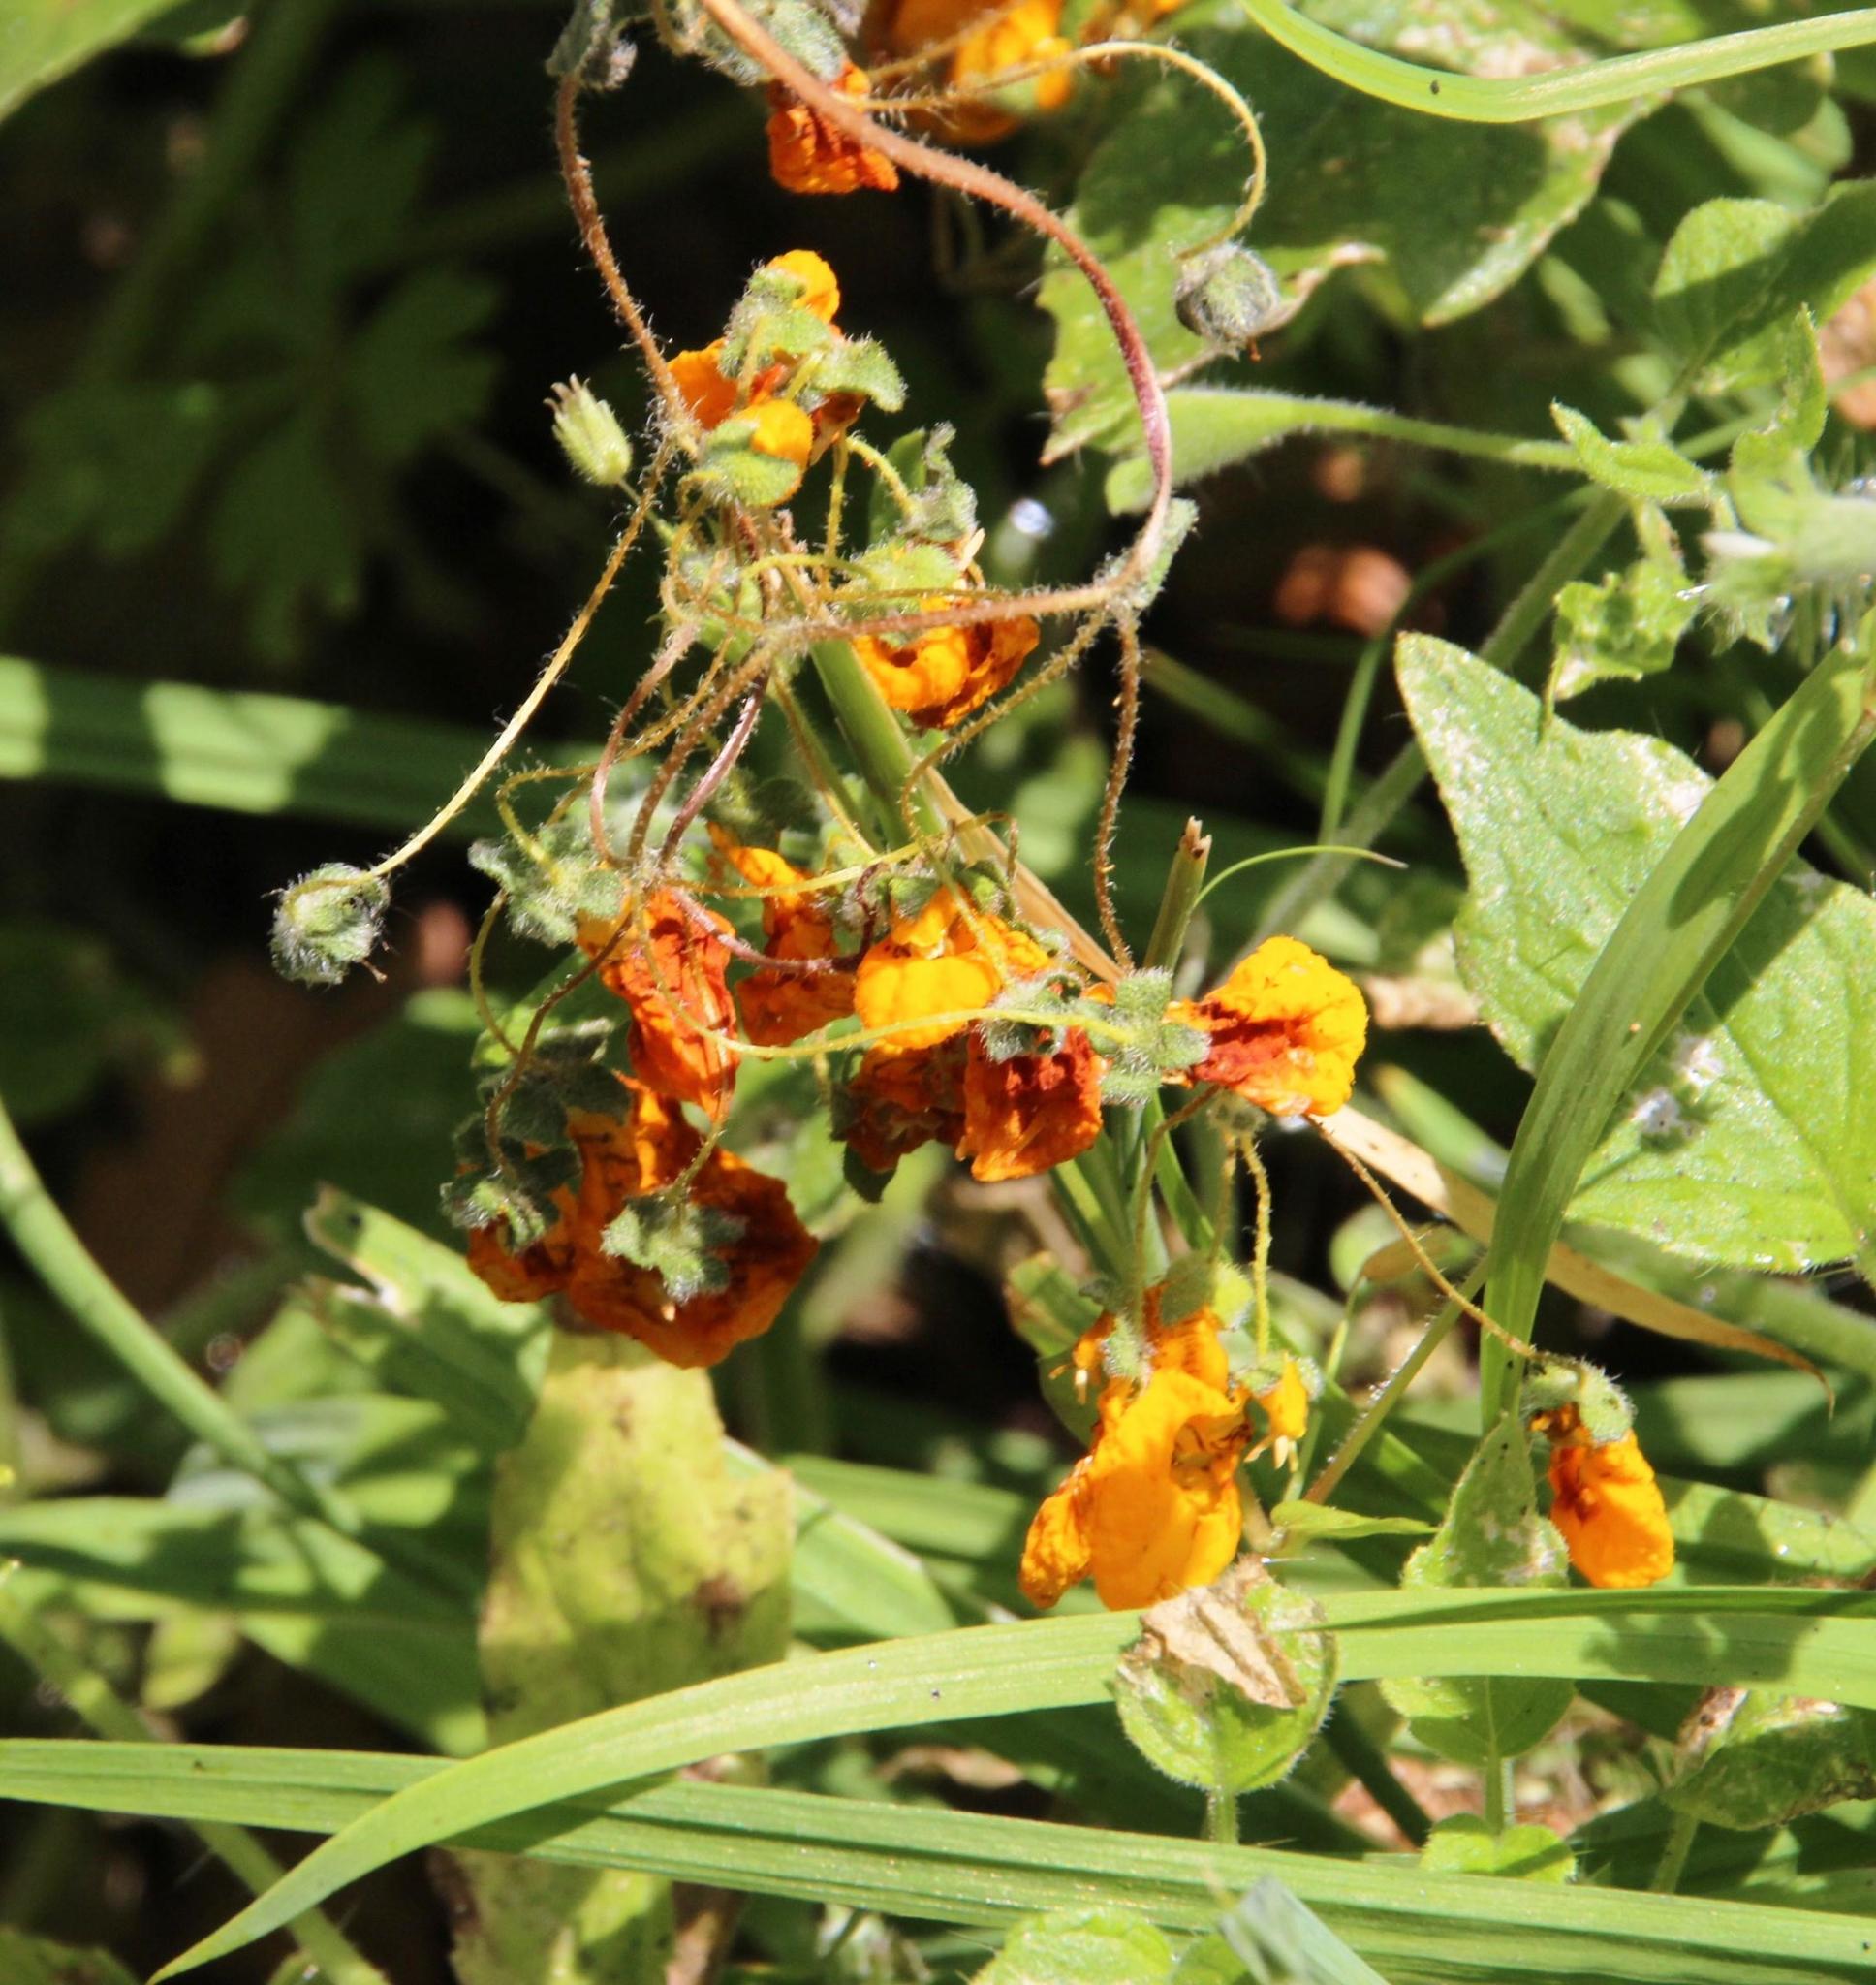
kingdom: Plantae
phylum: Tracheophyta
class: Magnoliopsida
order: Lamiales
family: Calceolariaceae
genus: Calceolaria
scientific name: Calceolaria corymbosa
